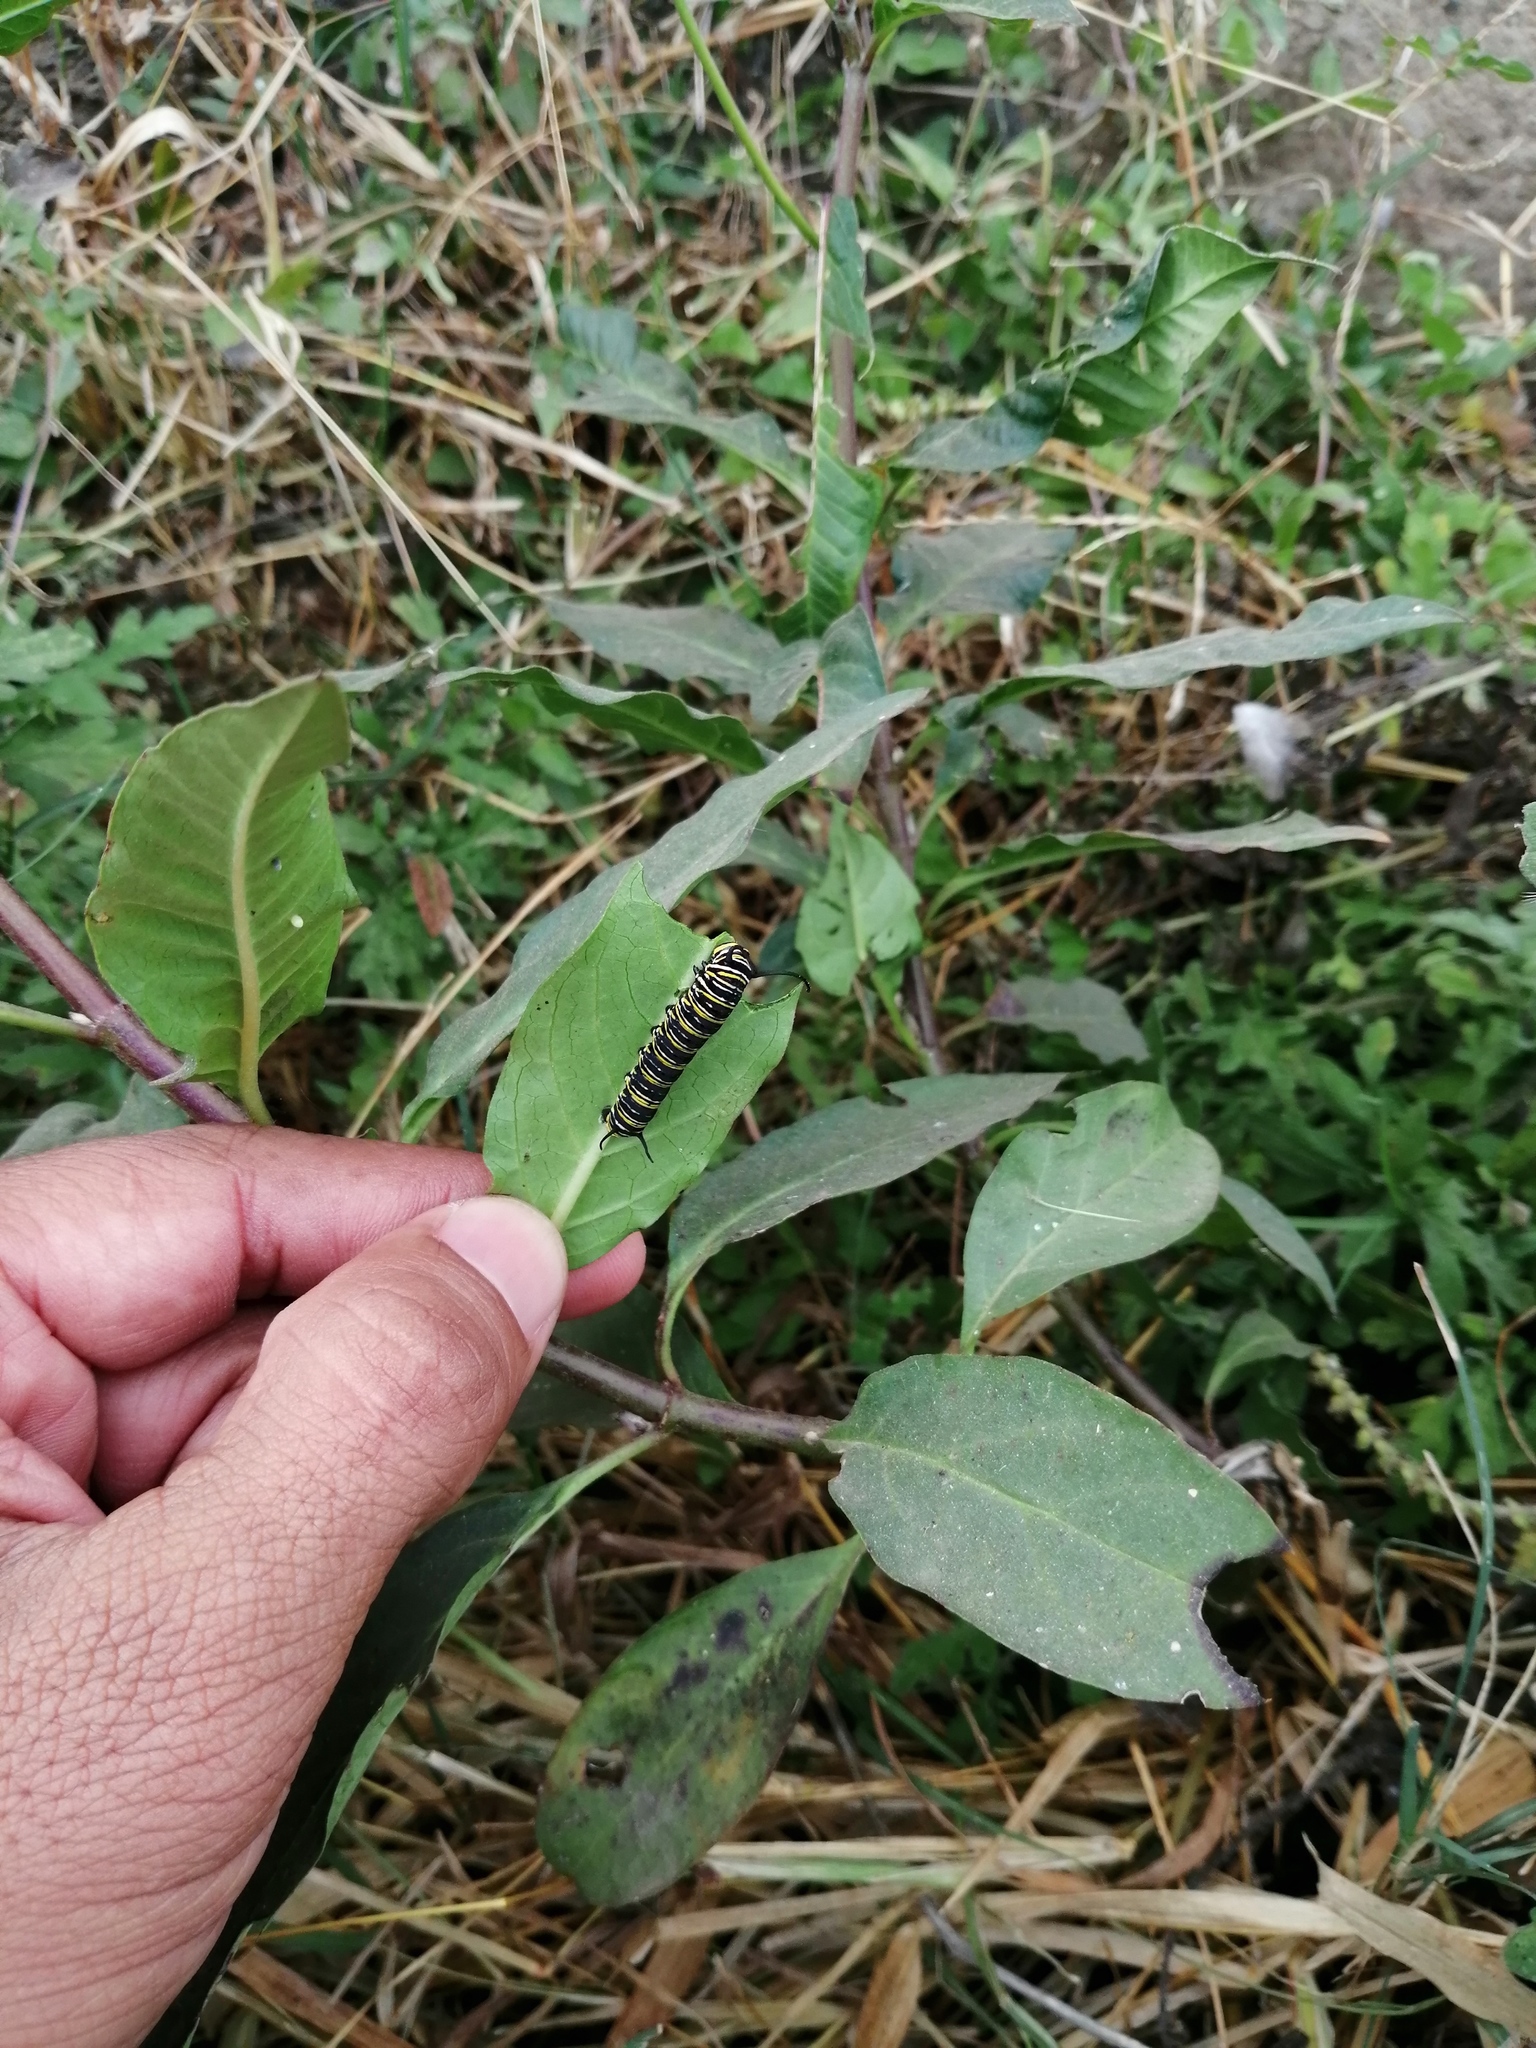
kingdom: Animalia
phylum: Arthropoda
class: Insecta
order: Lepidoptera
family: Nymphalidae
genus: Danaus
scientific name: Danaus plexippus
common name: Monarch
